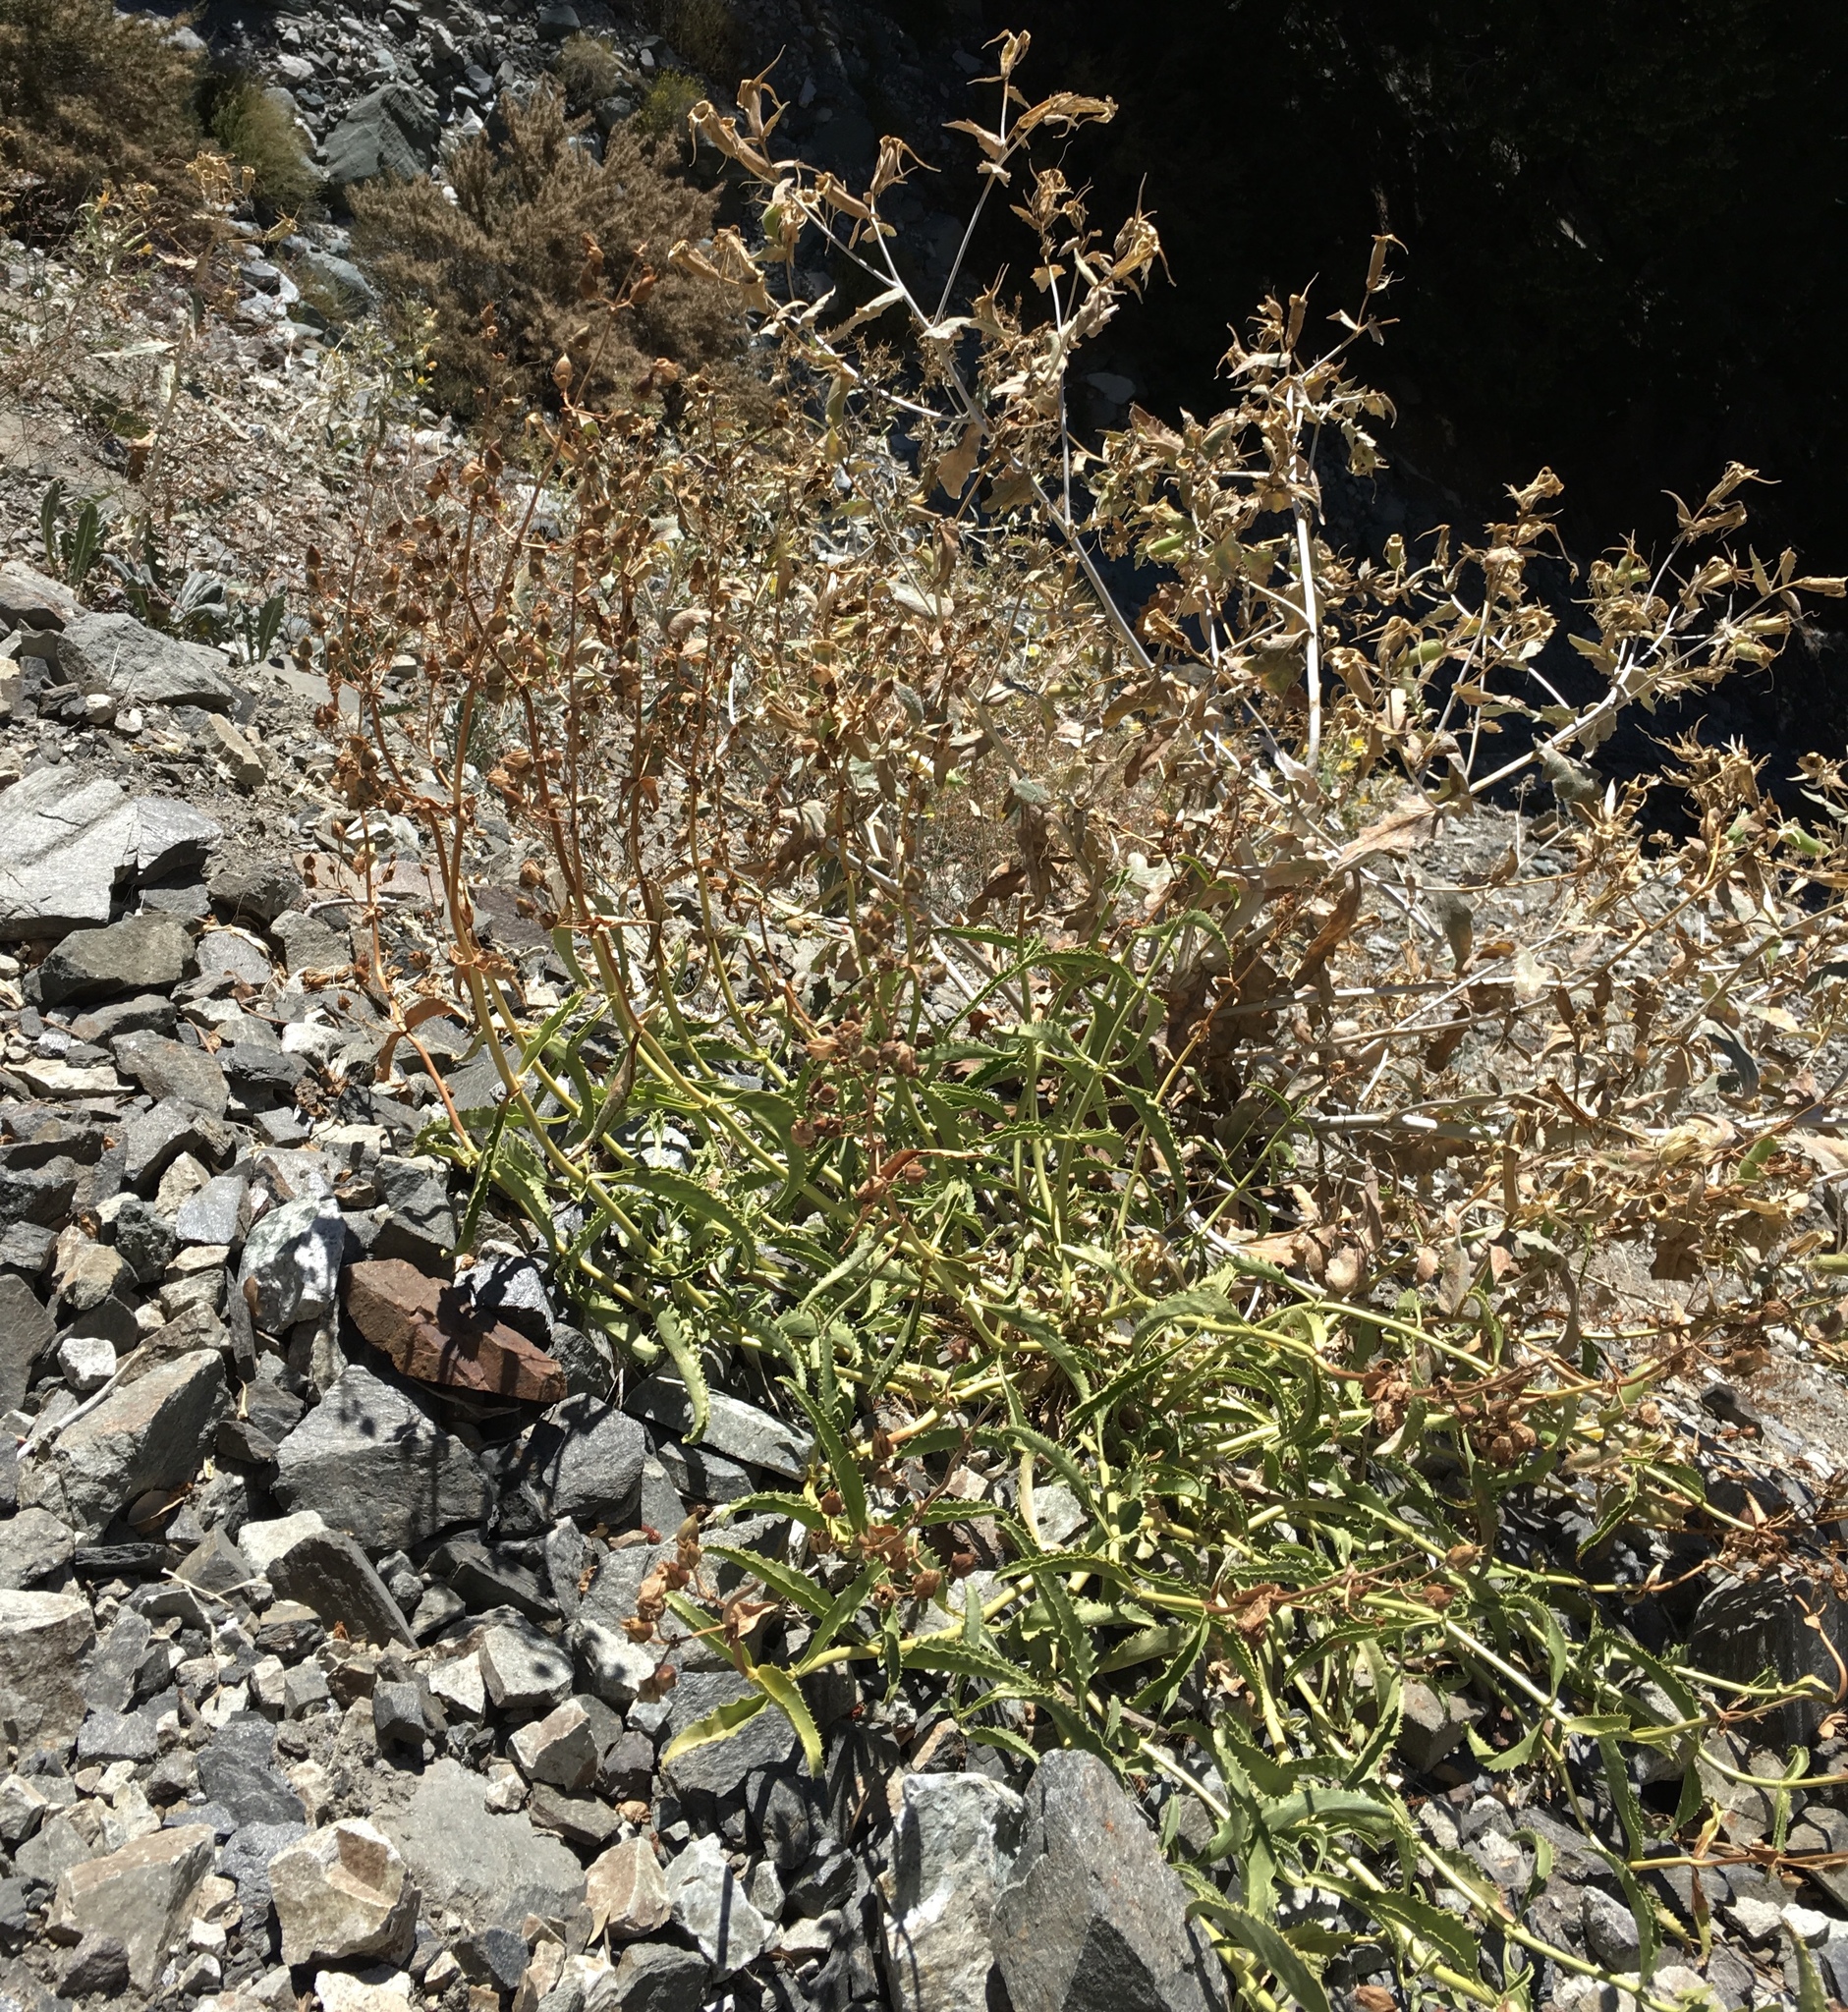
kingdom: Plantae
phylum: Tracheophyta
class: Magnoliopsida
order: Lamiales
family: Plantaginaceae
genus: Penstemon
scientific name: Penstemon grinnellii
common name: Grinnell's beardtongue
